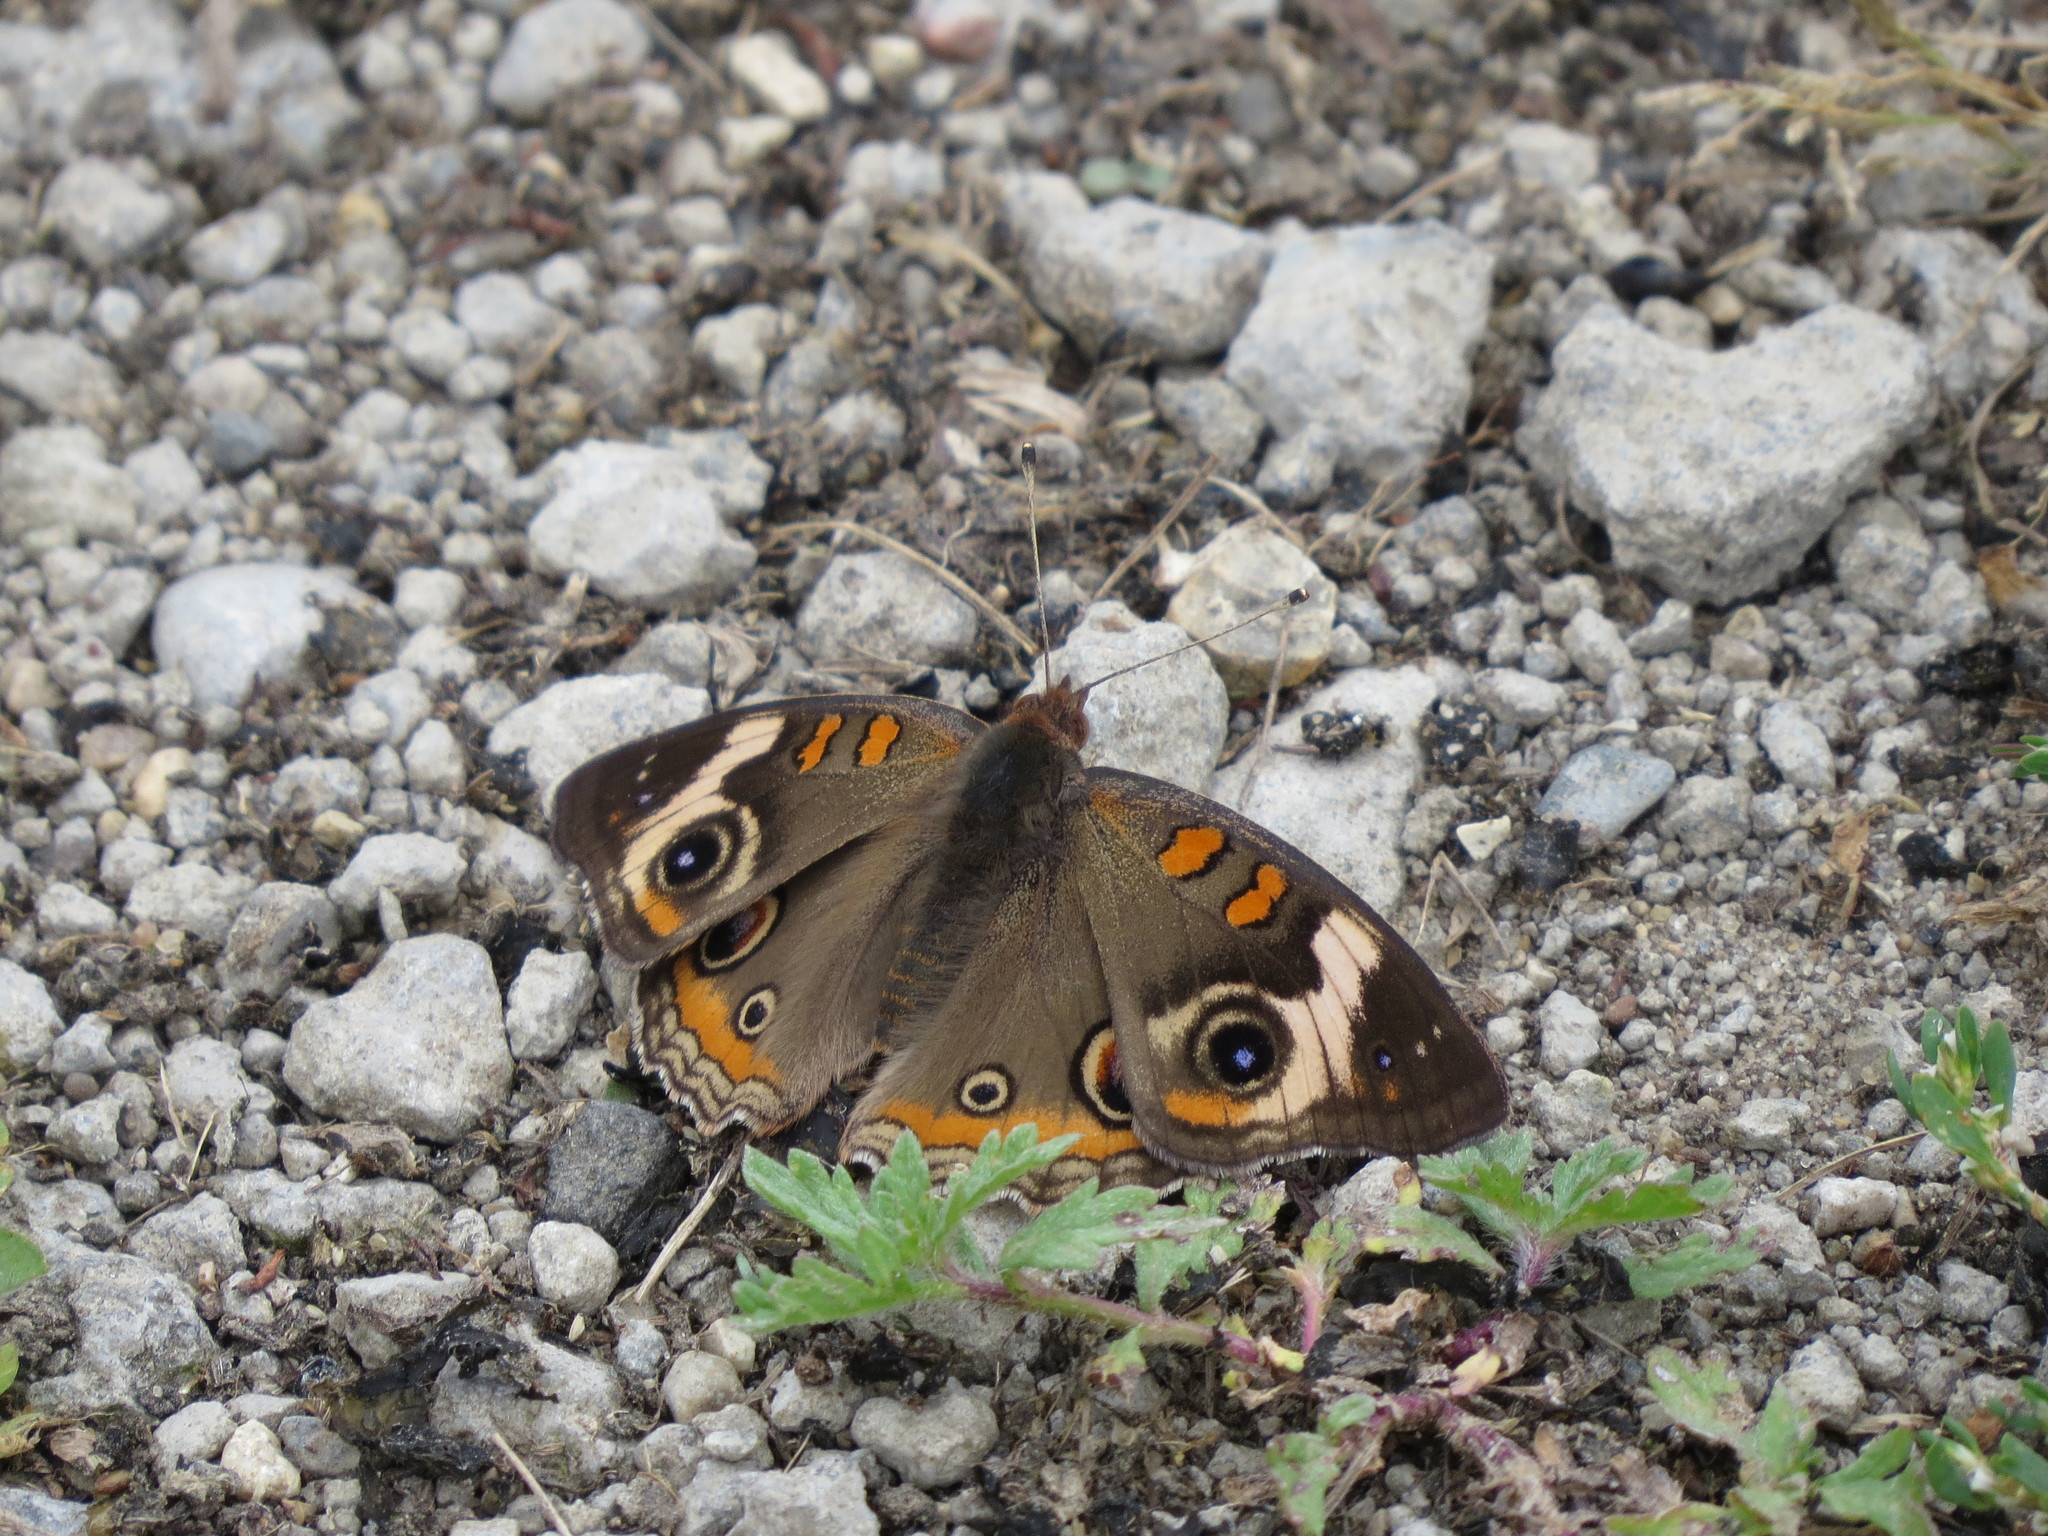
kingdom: Animalia
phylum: Arthropoda
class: Insecta
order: Lepidoptera
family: Nymphalidae
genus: Junonia
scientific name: Junonia coenia
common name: Common buckeye
